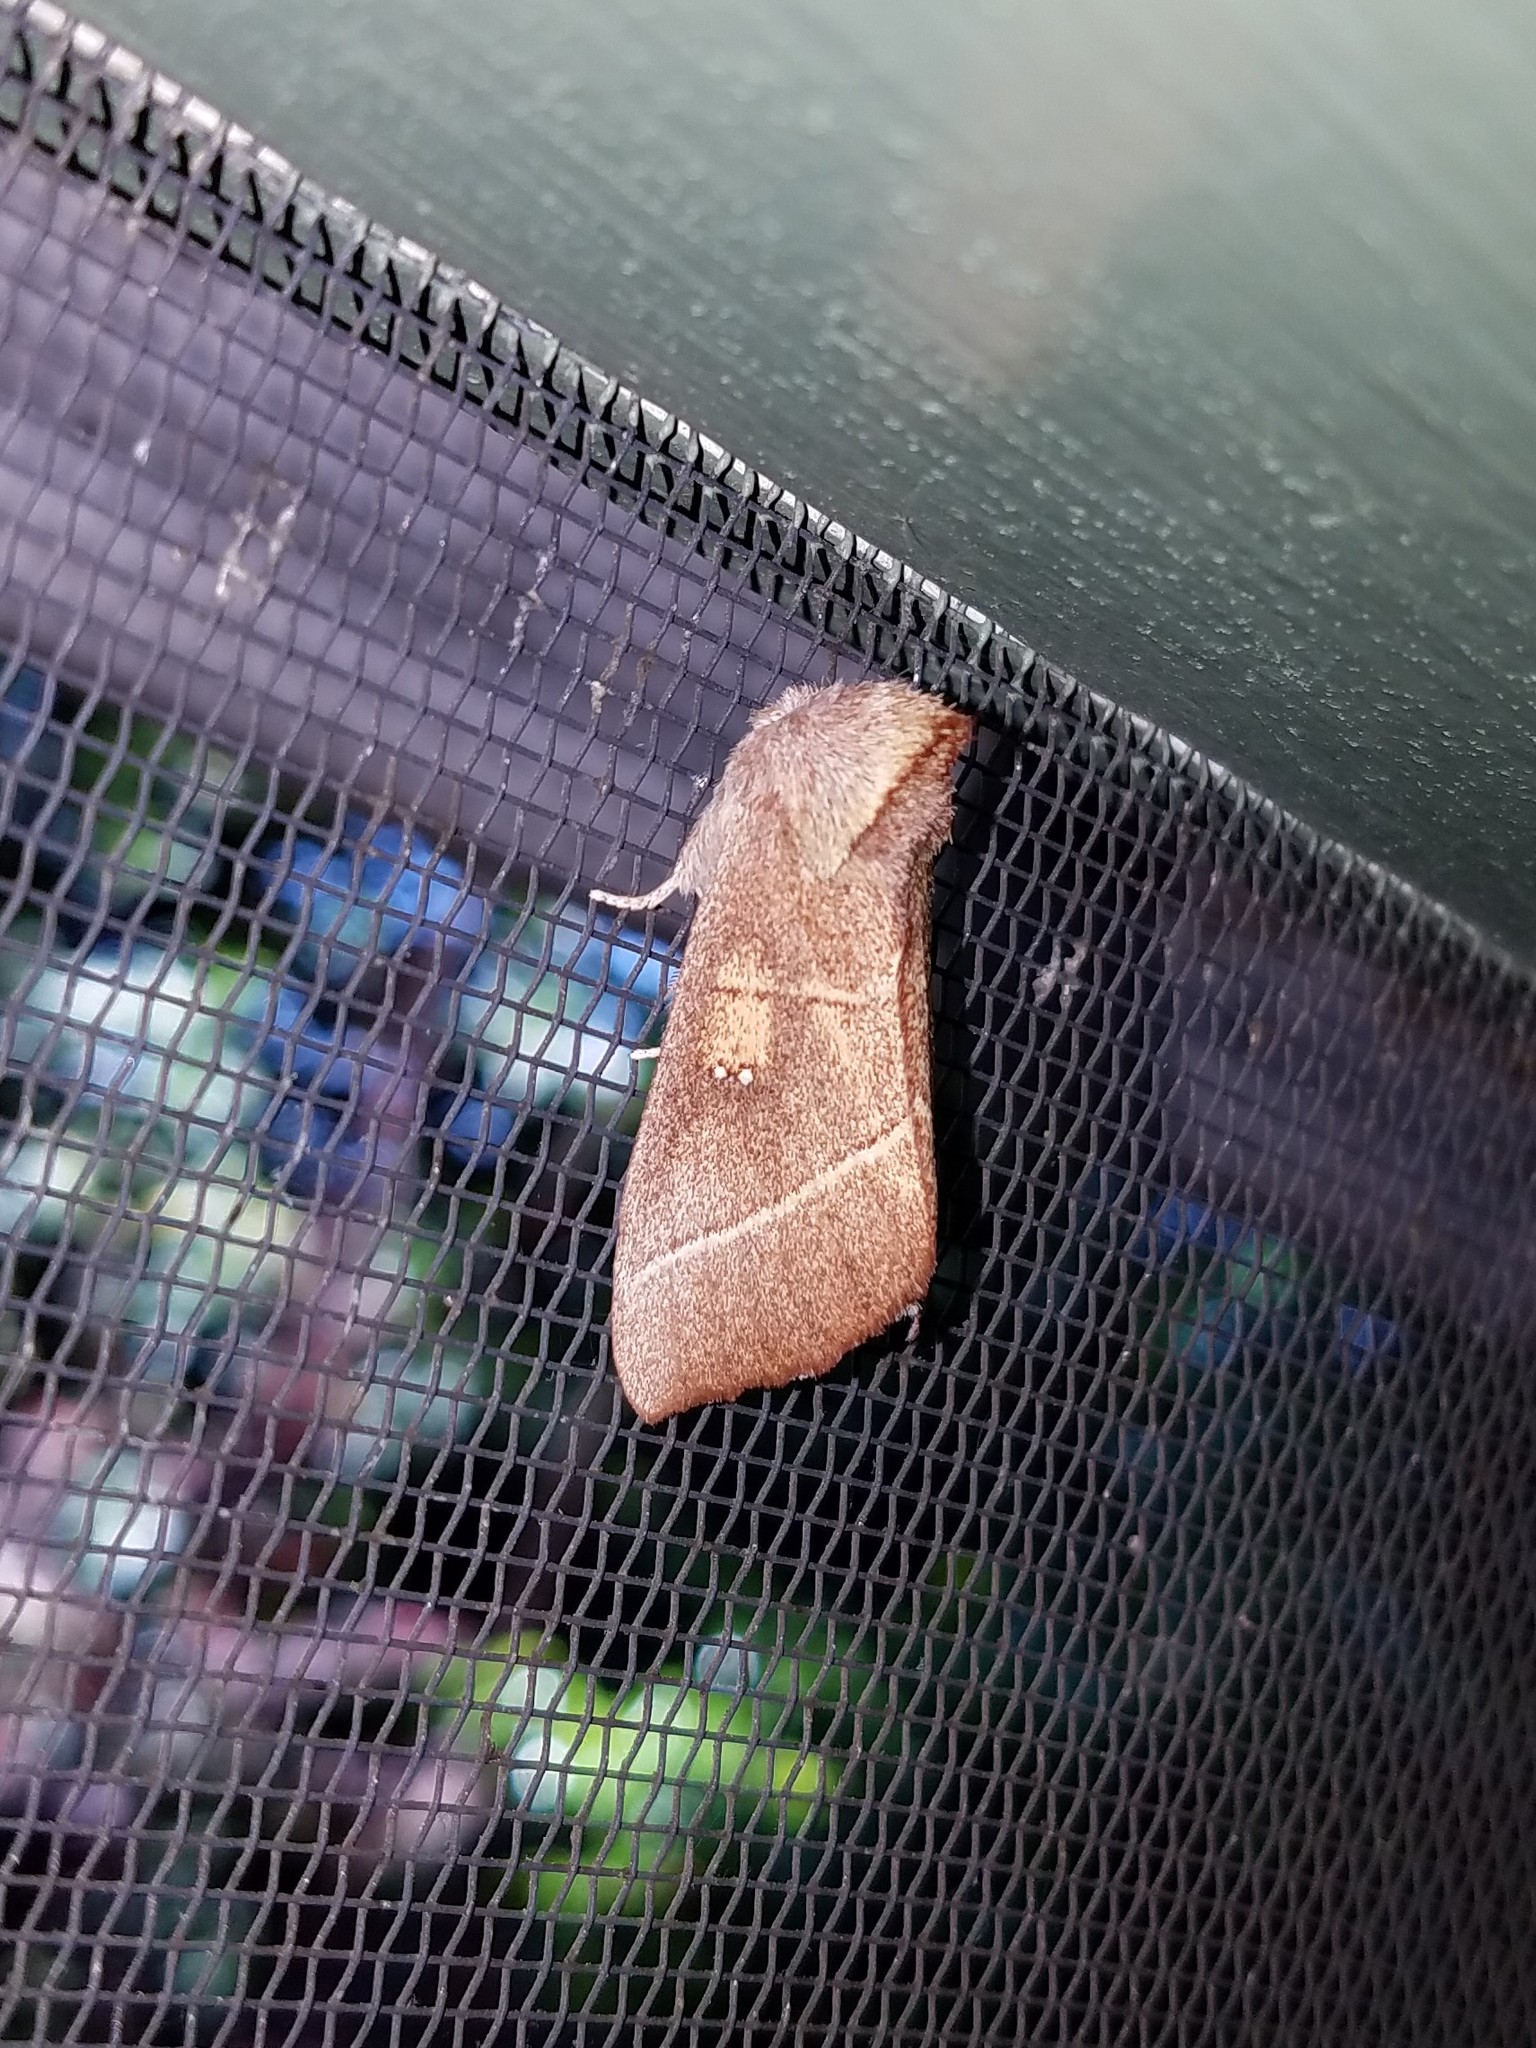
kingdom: Animalia
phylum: Arthropoda
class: Insecta
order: Lepidoptera
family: Notodontidae
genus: Nadata
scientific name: Nadata gibbosa
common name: White-dotted prominent
